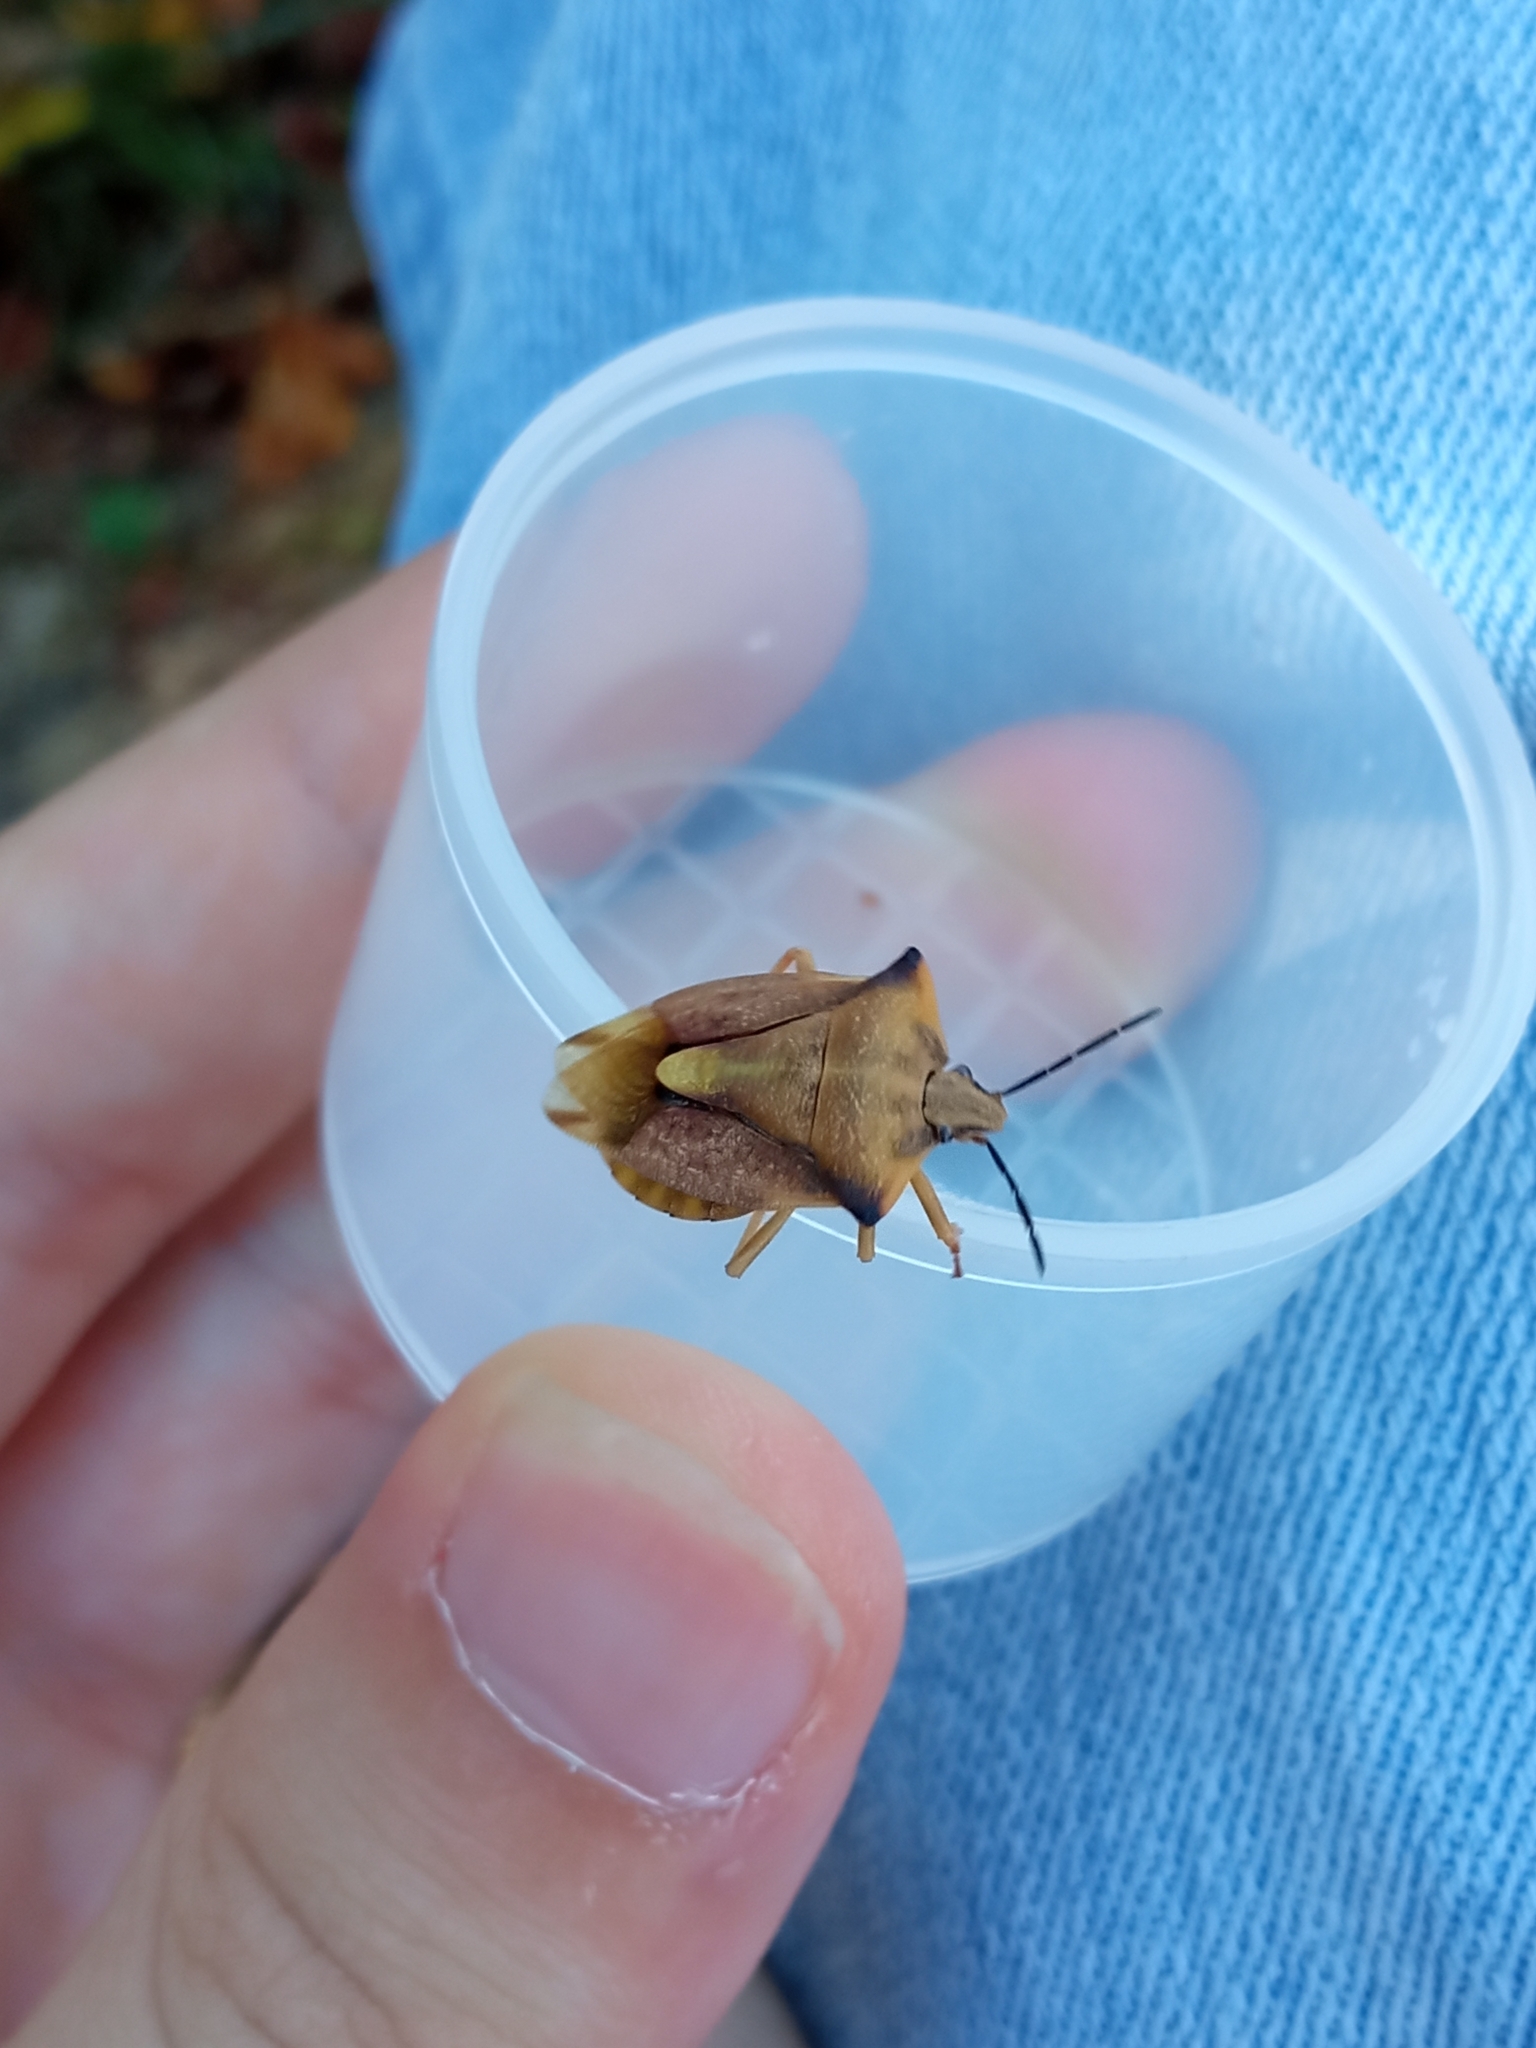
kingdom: Animalia
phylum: Arthropoda
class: Insecta
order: Hemiptera
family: Pentatomidae
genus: Carpocoris
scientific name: Carpocoris fuscispinus
